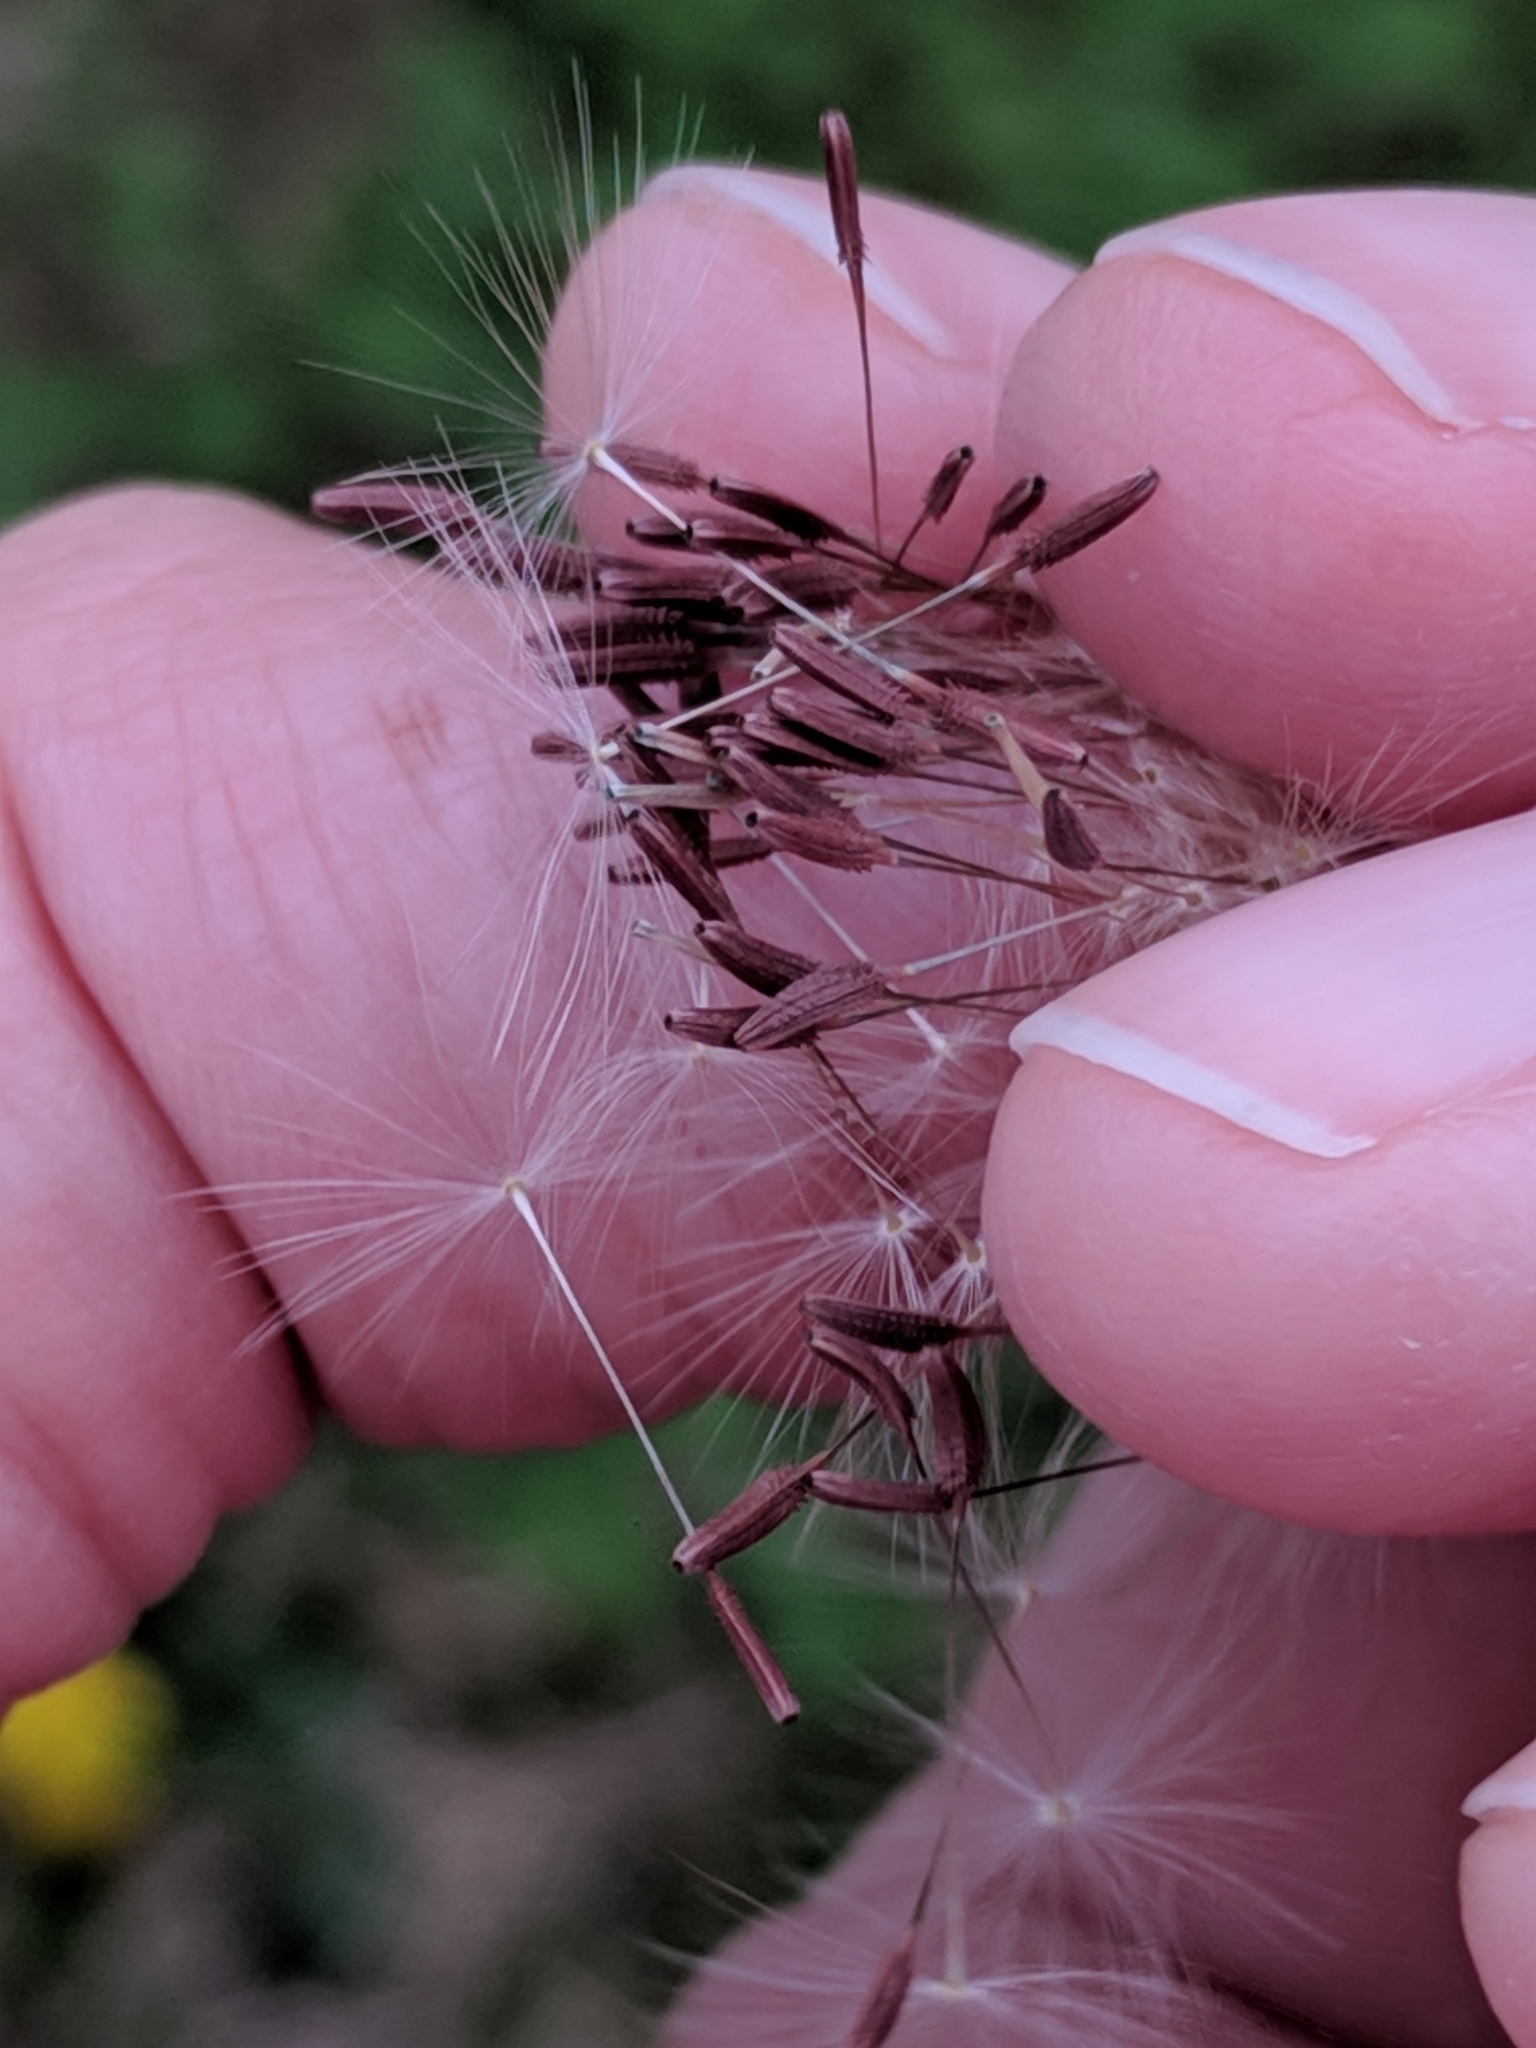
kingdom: Plantae
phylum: Tracheophyta
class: Magnoliopsida
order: Asterales
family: Asteraceae
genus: Taraxacum
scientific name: Taraxacum erythrospermum
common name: Rock dandelion
